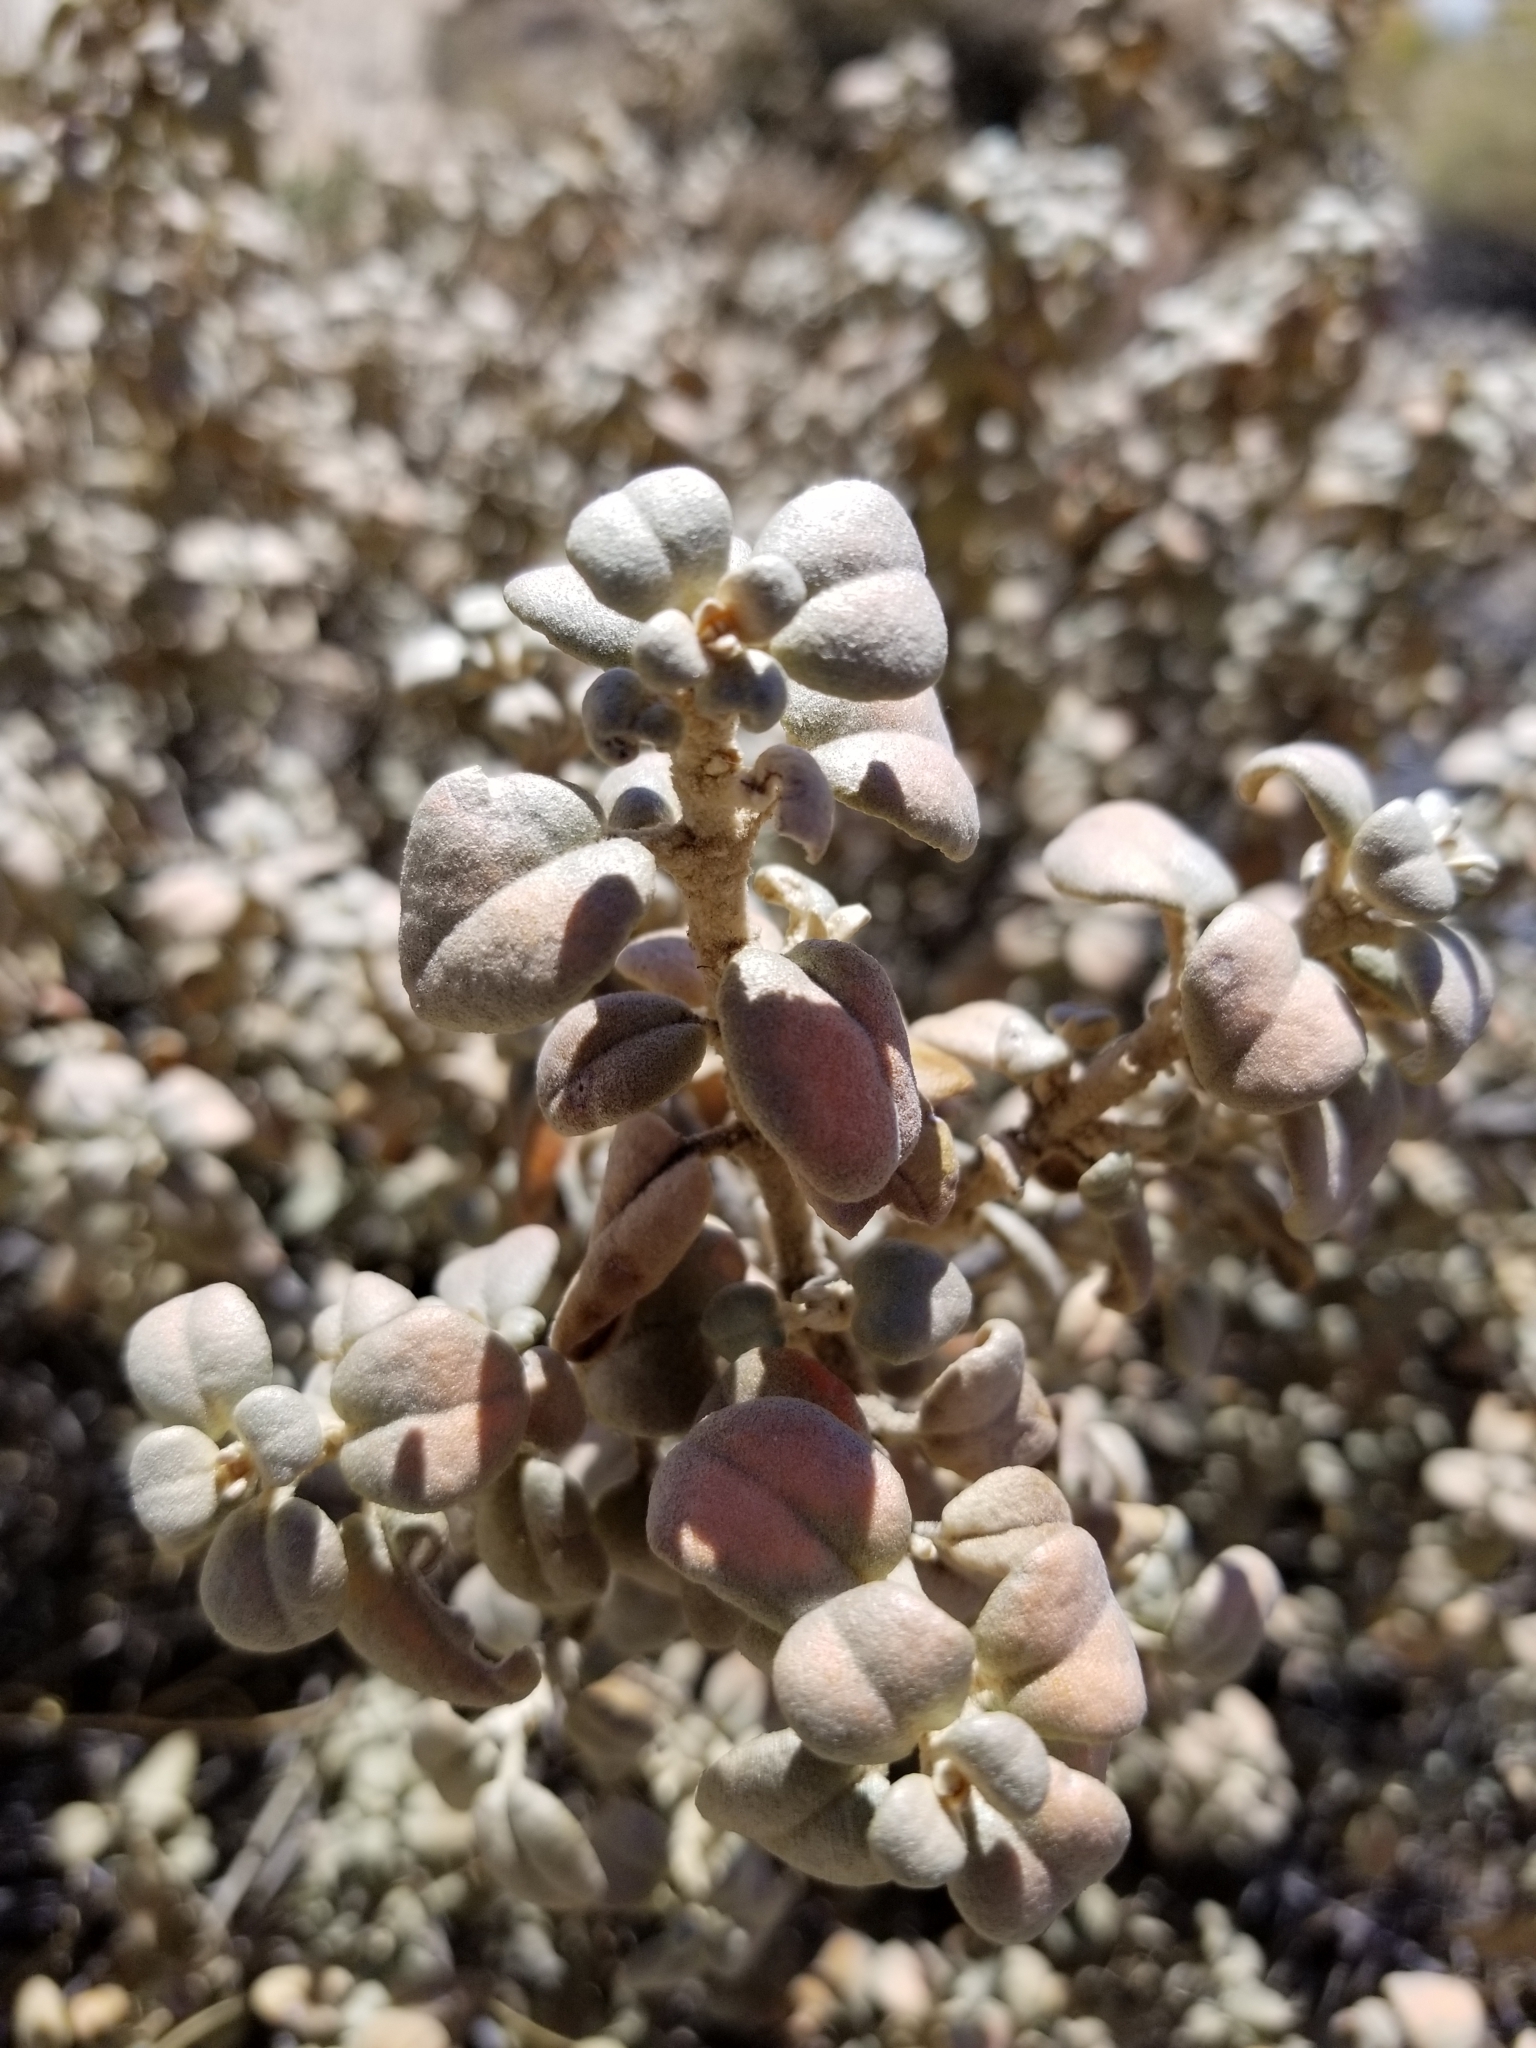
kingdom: Plantae
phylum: Tracheophyta
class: Magnoliopsida
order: Rosales
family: Elaeagnaceae
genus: Shepherdia
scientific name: Shepherdia rotundifolia
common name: Silverscale
